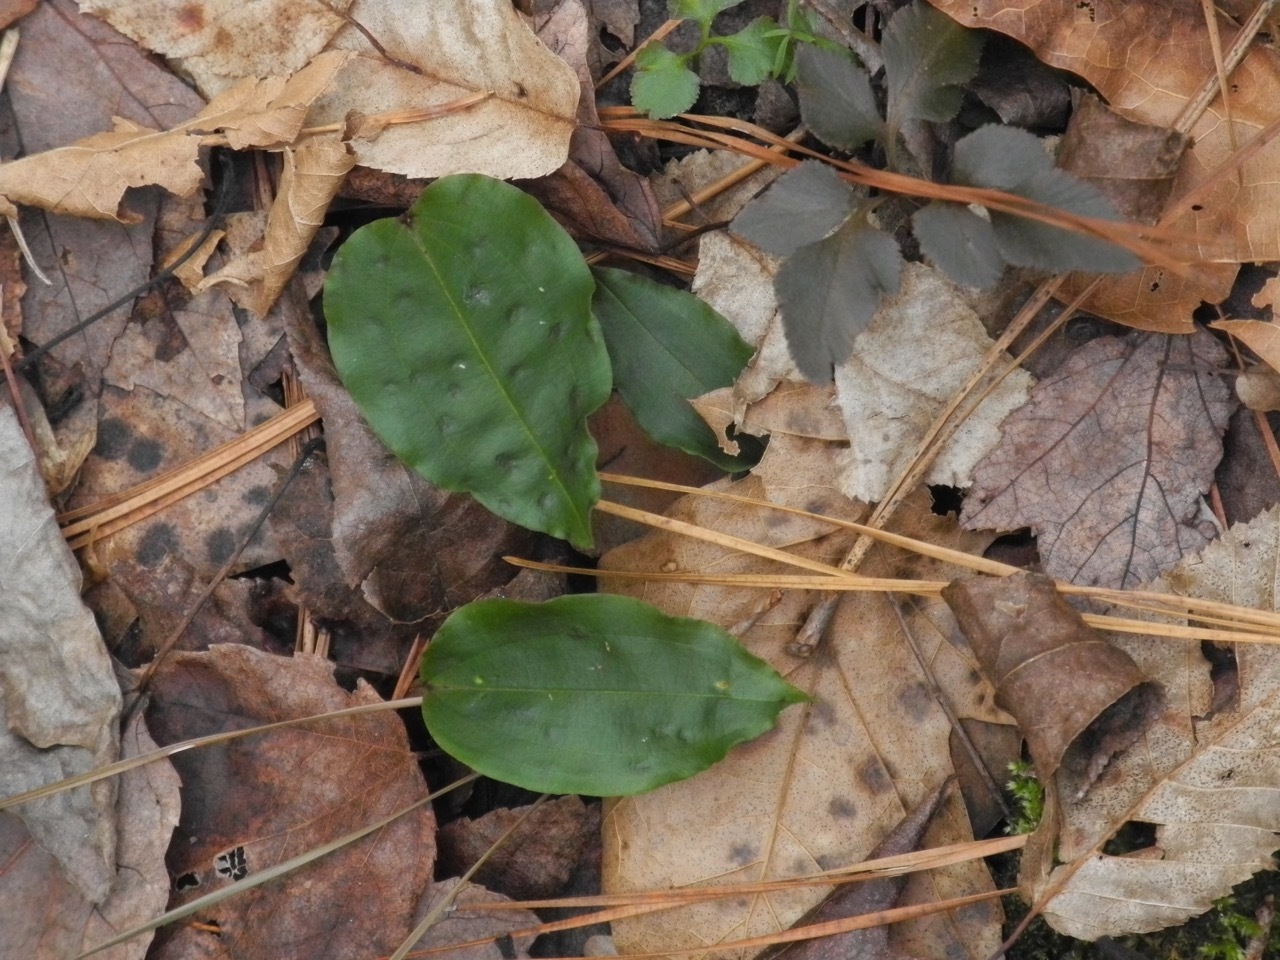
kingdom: Plantae
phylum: Tracheophyta
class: Liliopsida
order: Asparagales
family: Orchidaceae
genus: Tipularia
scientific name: Tipularia discolor
